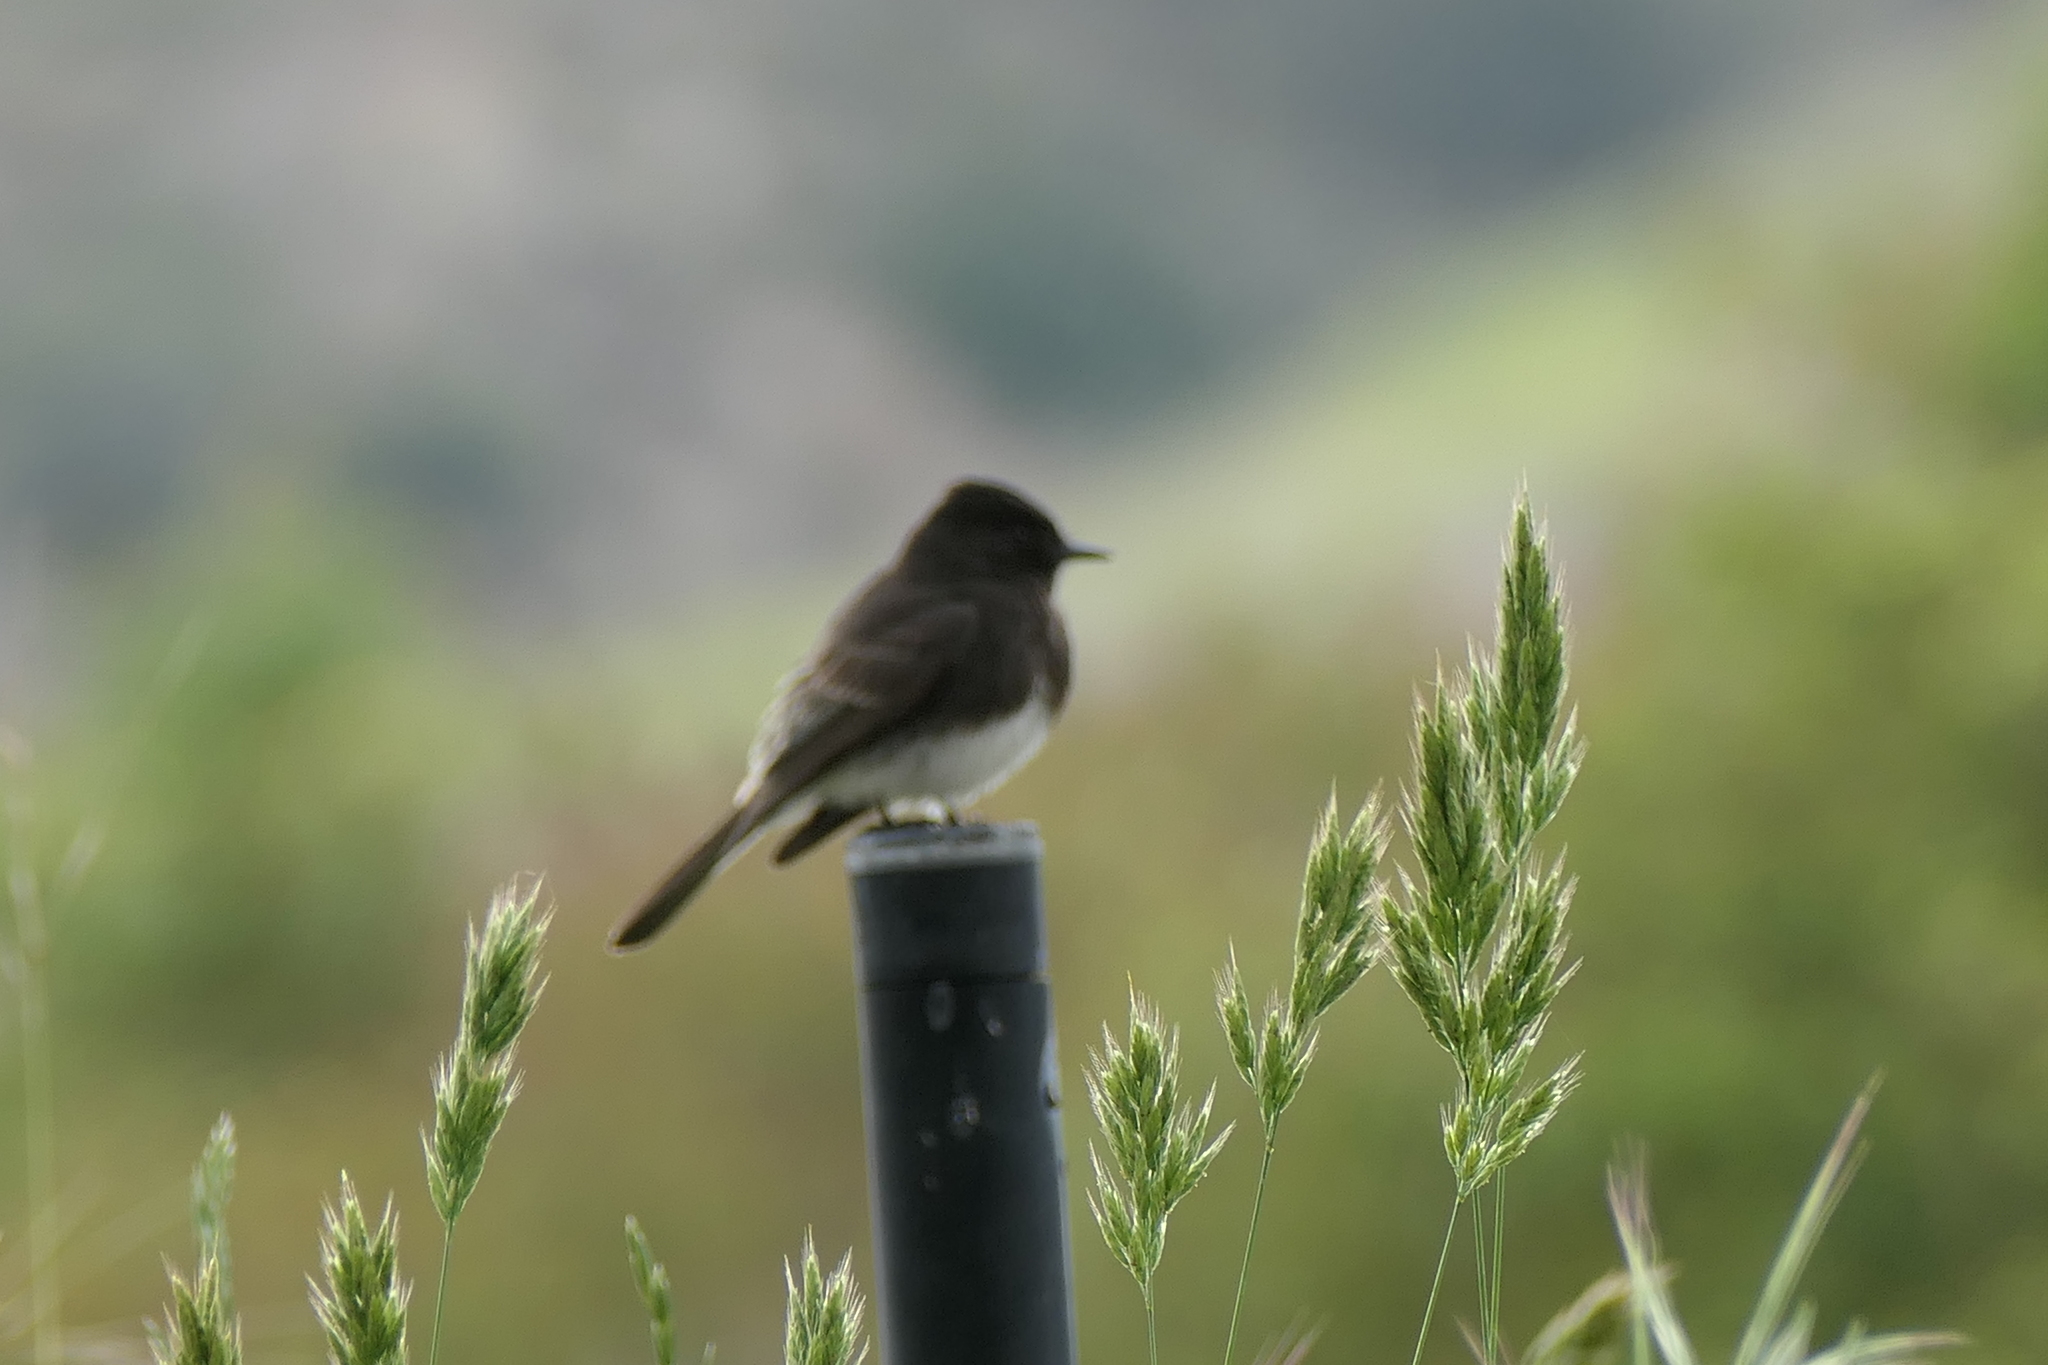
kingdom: Animalia
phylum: Chordata
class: Aves
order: Passeriformes
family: Tyrannidae
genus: Sayornis
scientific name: Sayornis nigricans
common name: Black phoebe
